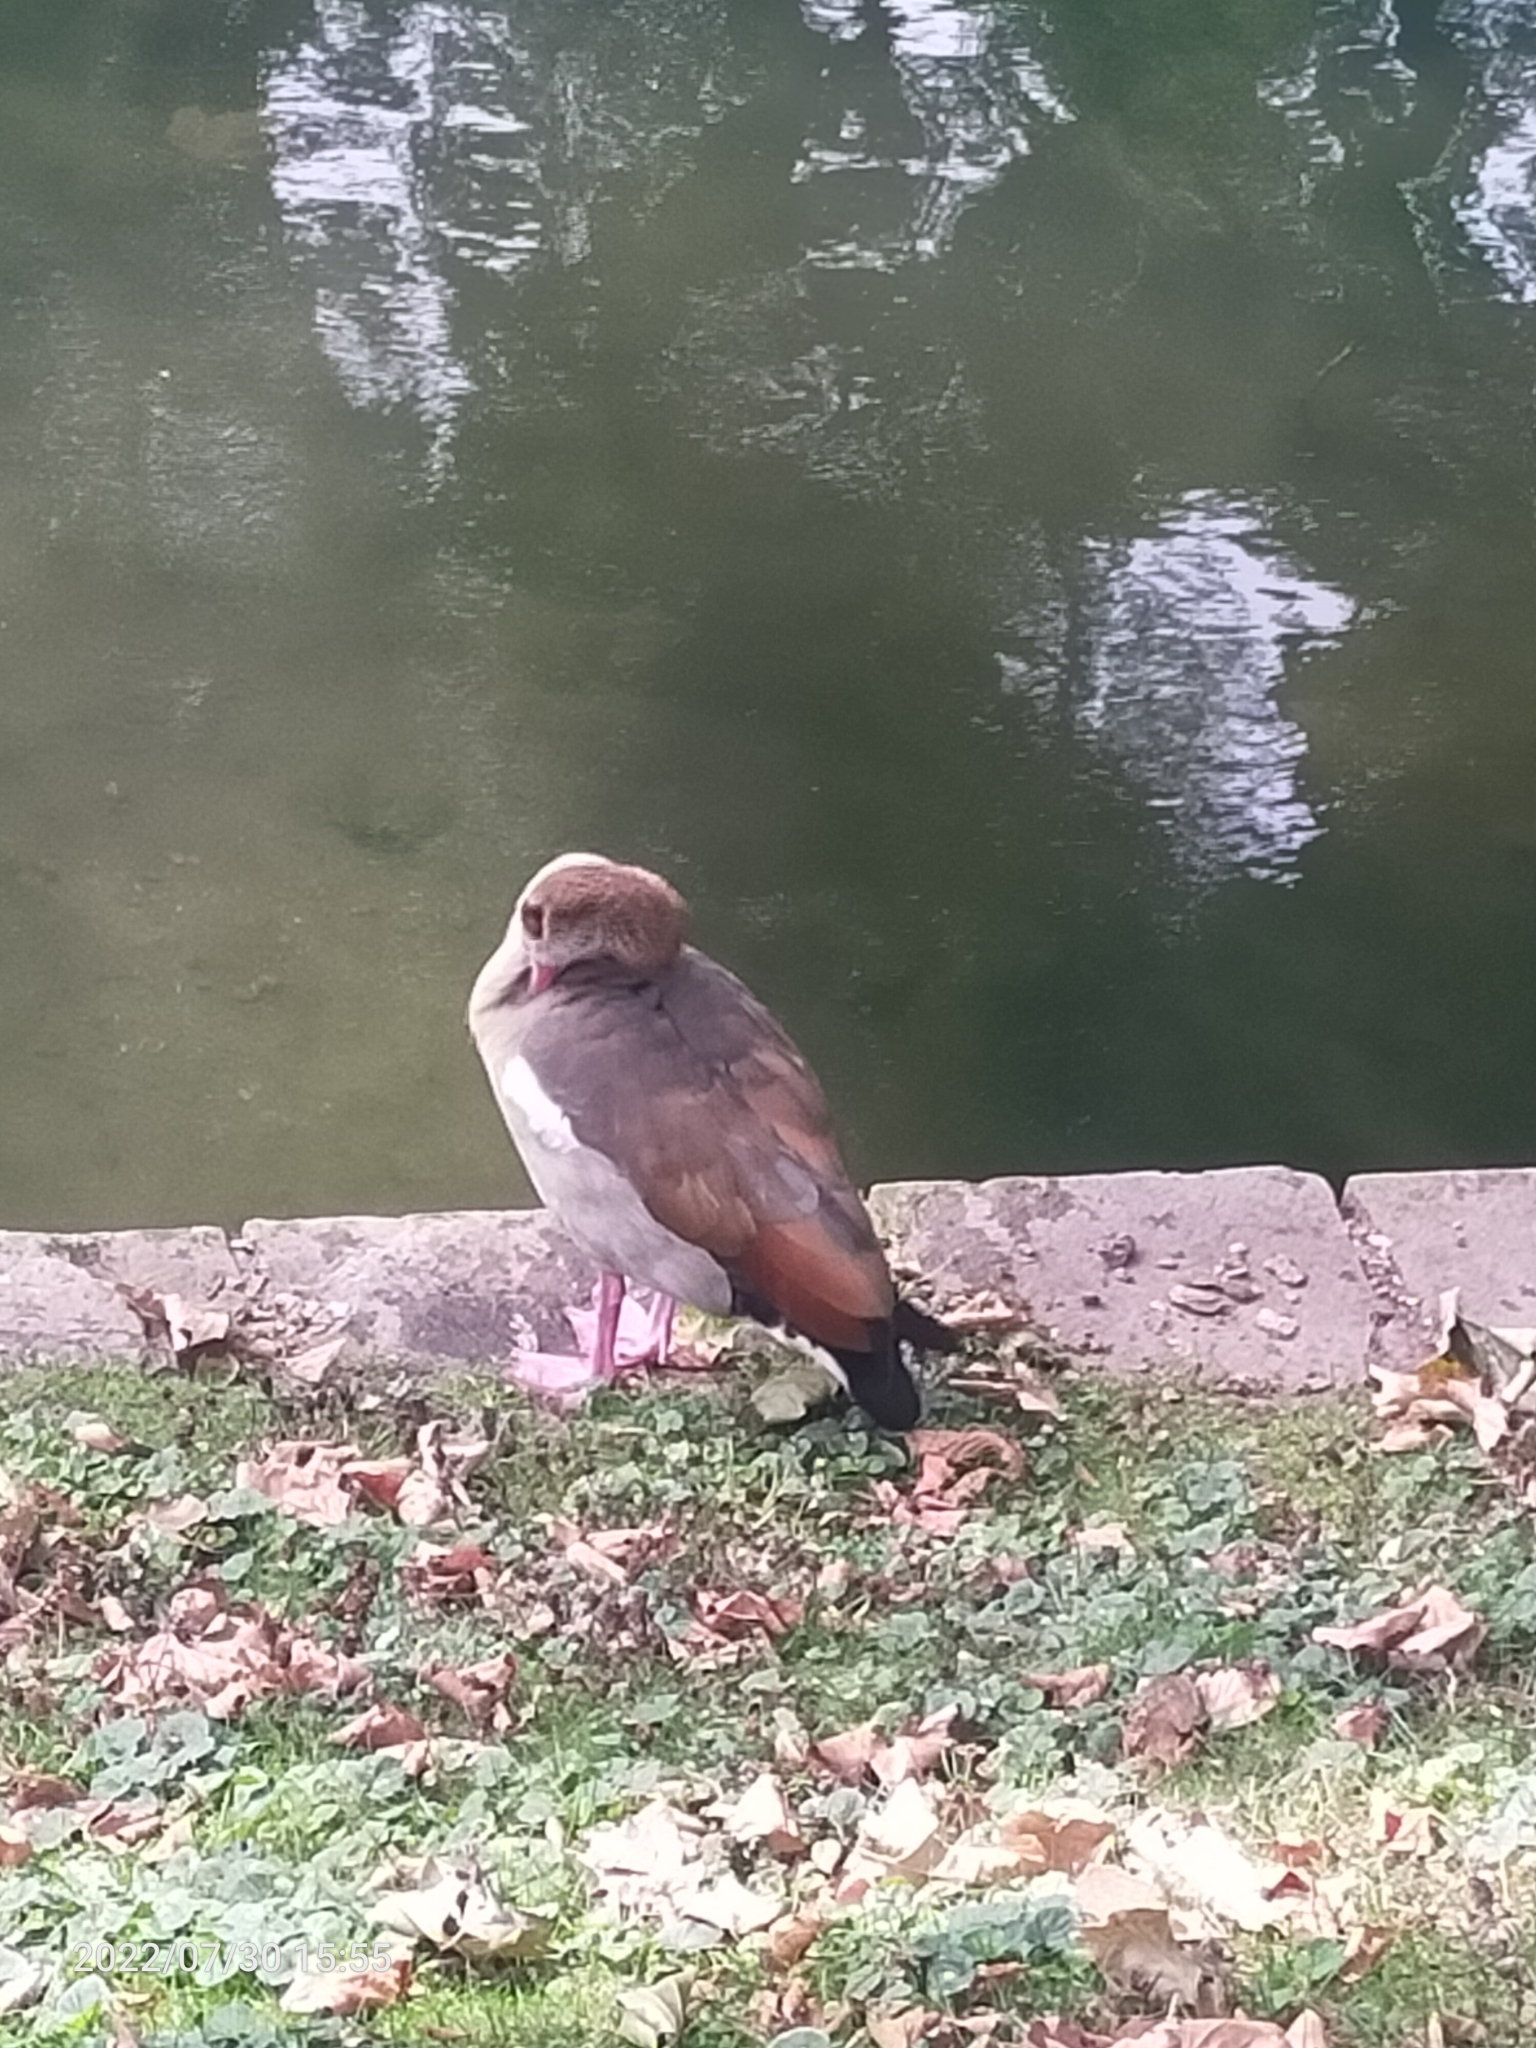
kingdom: Animalia
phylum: Chordata
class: Aves
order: Anseriformes
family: Anatidae
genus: Alopochen
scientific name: Alopochen aegyptiaca
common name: Egyptian goose
